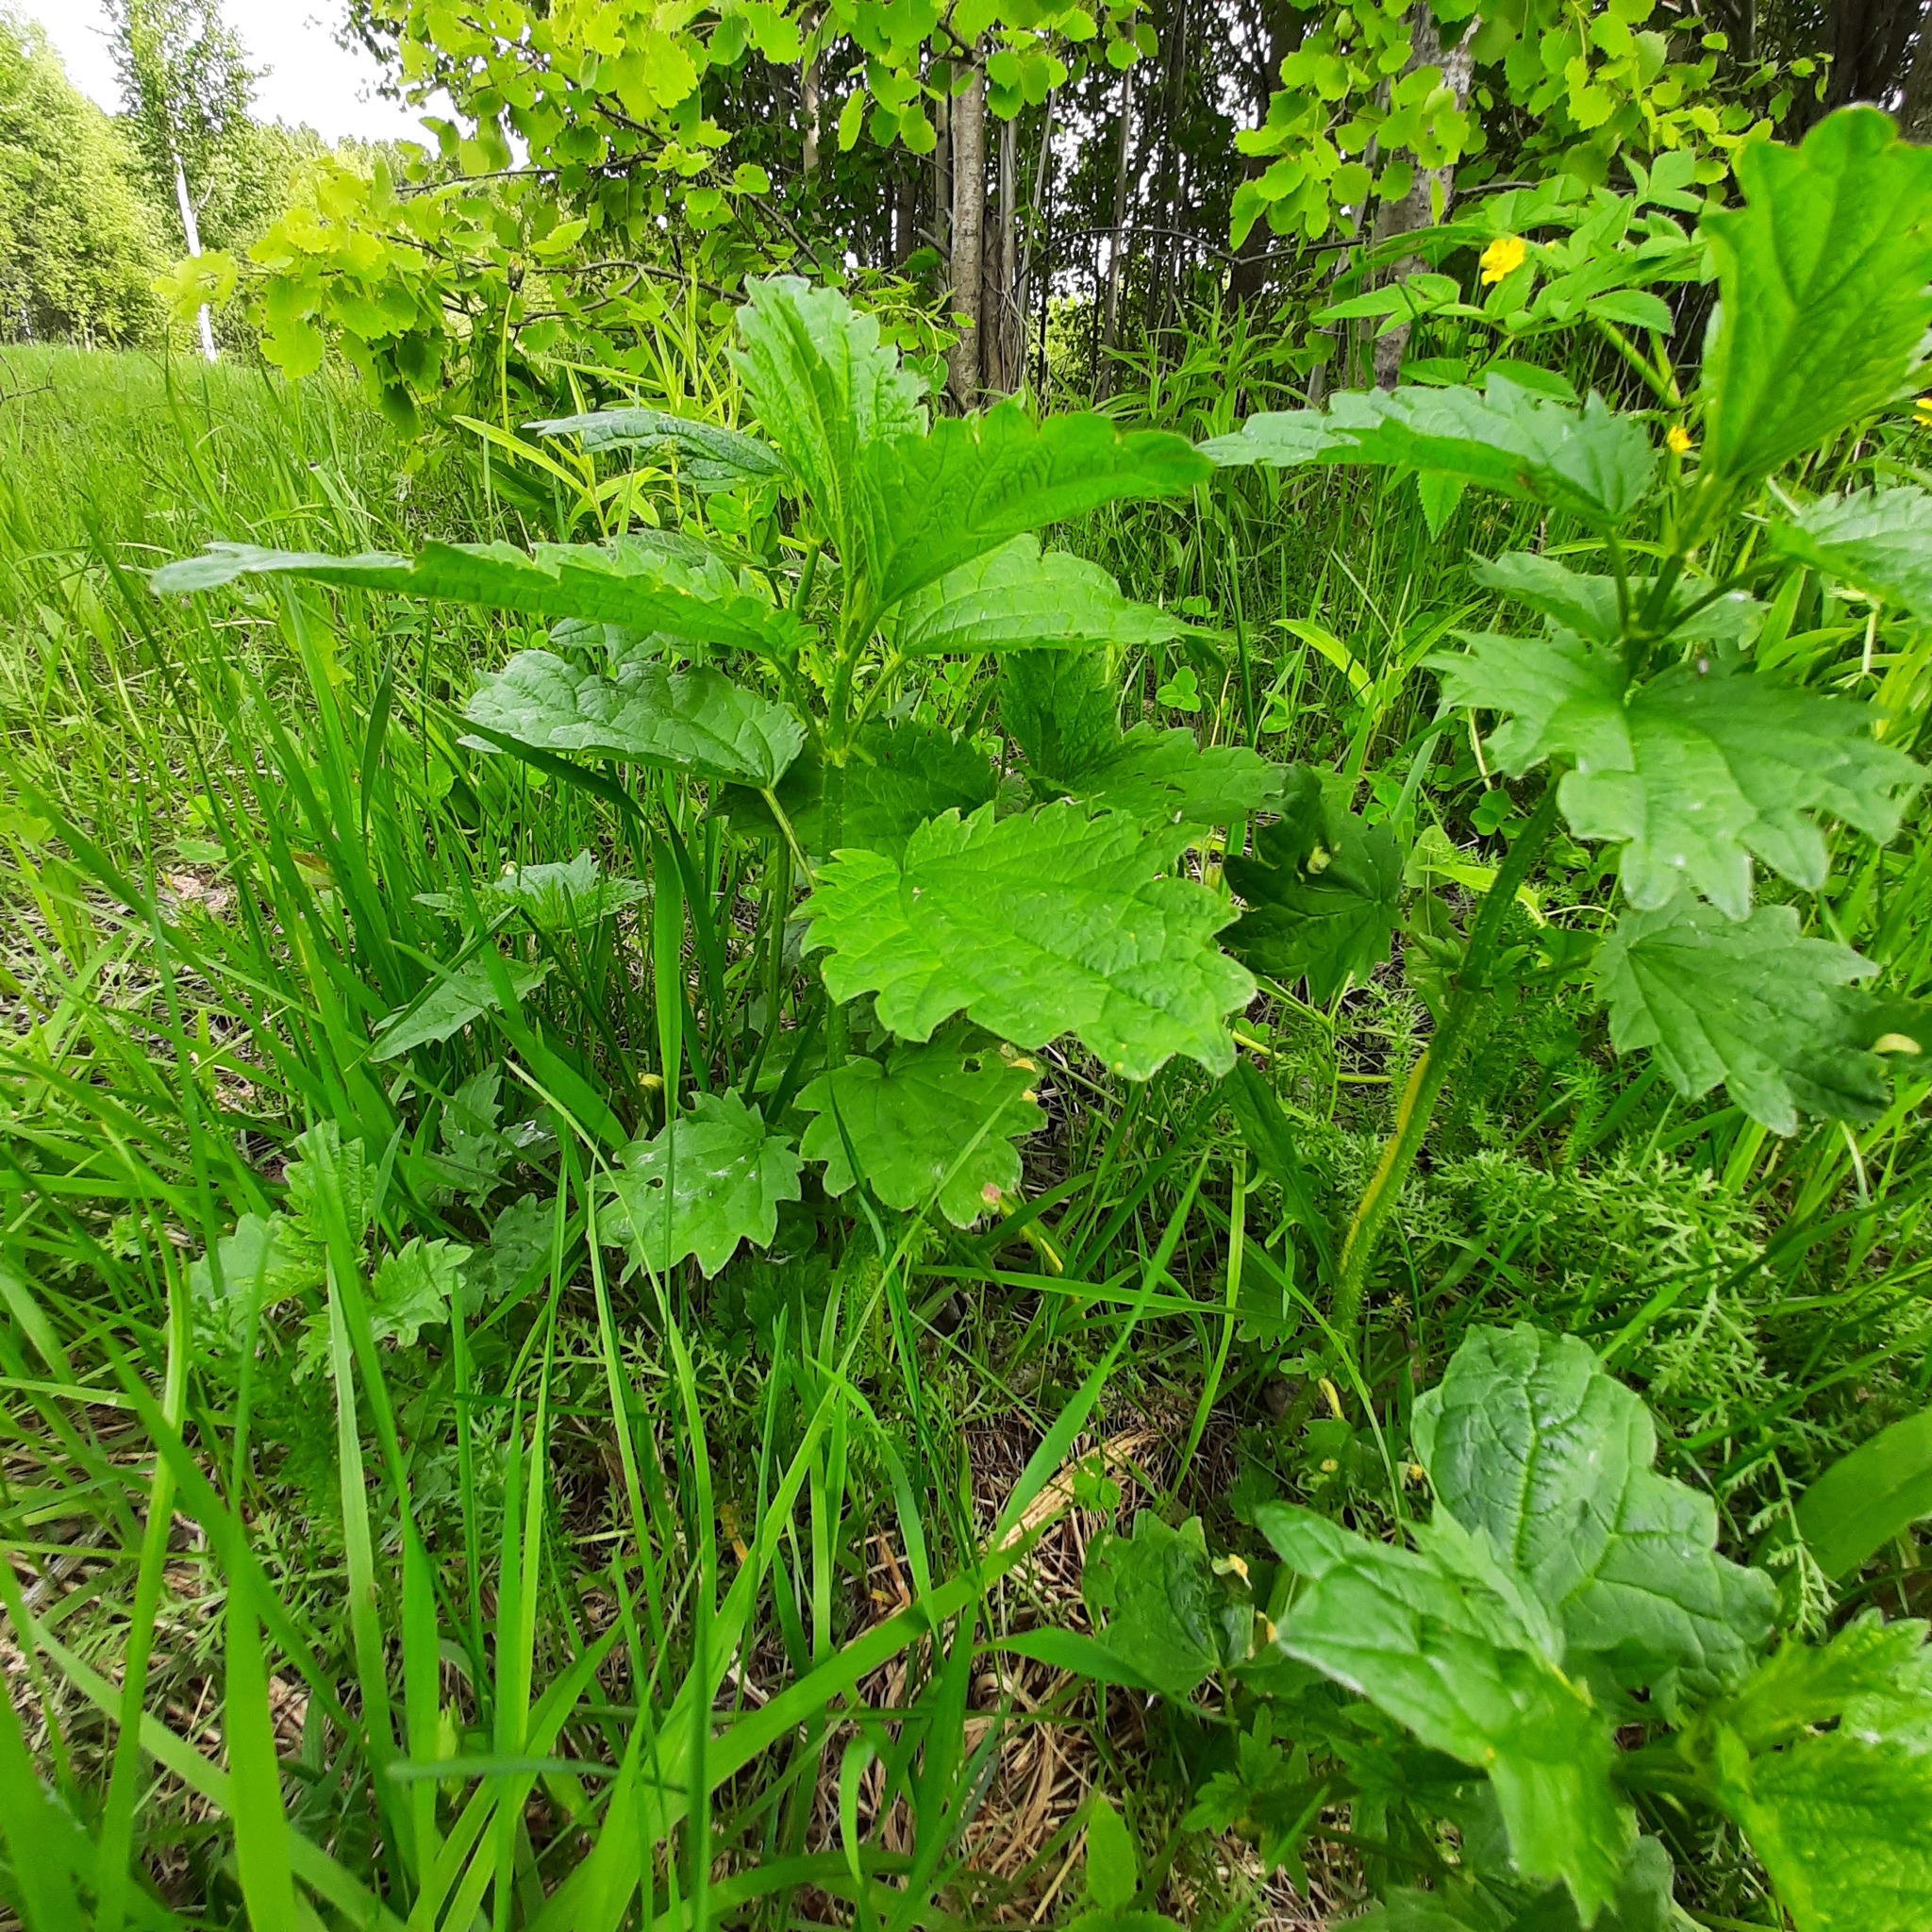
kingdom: Plantae
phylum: Tracheophyta
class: Magnoliopsida
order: Rosales
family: Urticaceae
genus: Urtica
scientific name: Urtica dioica
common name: Common nettle
